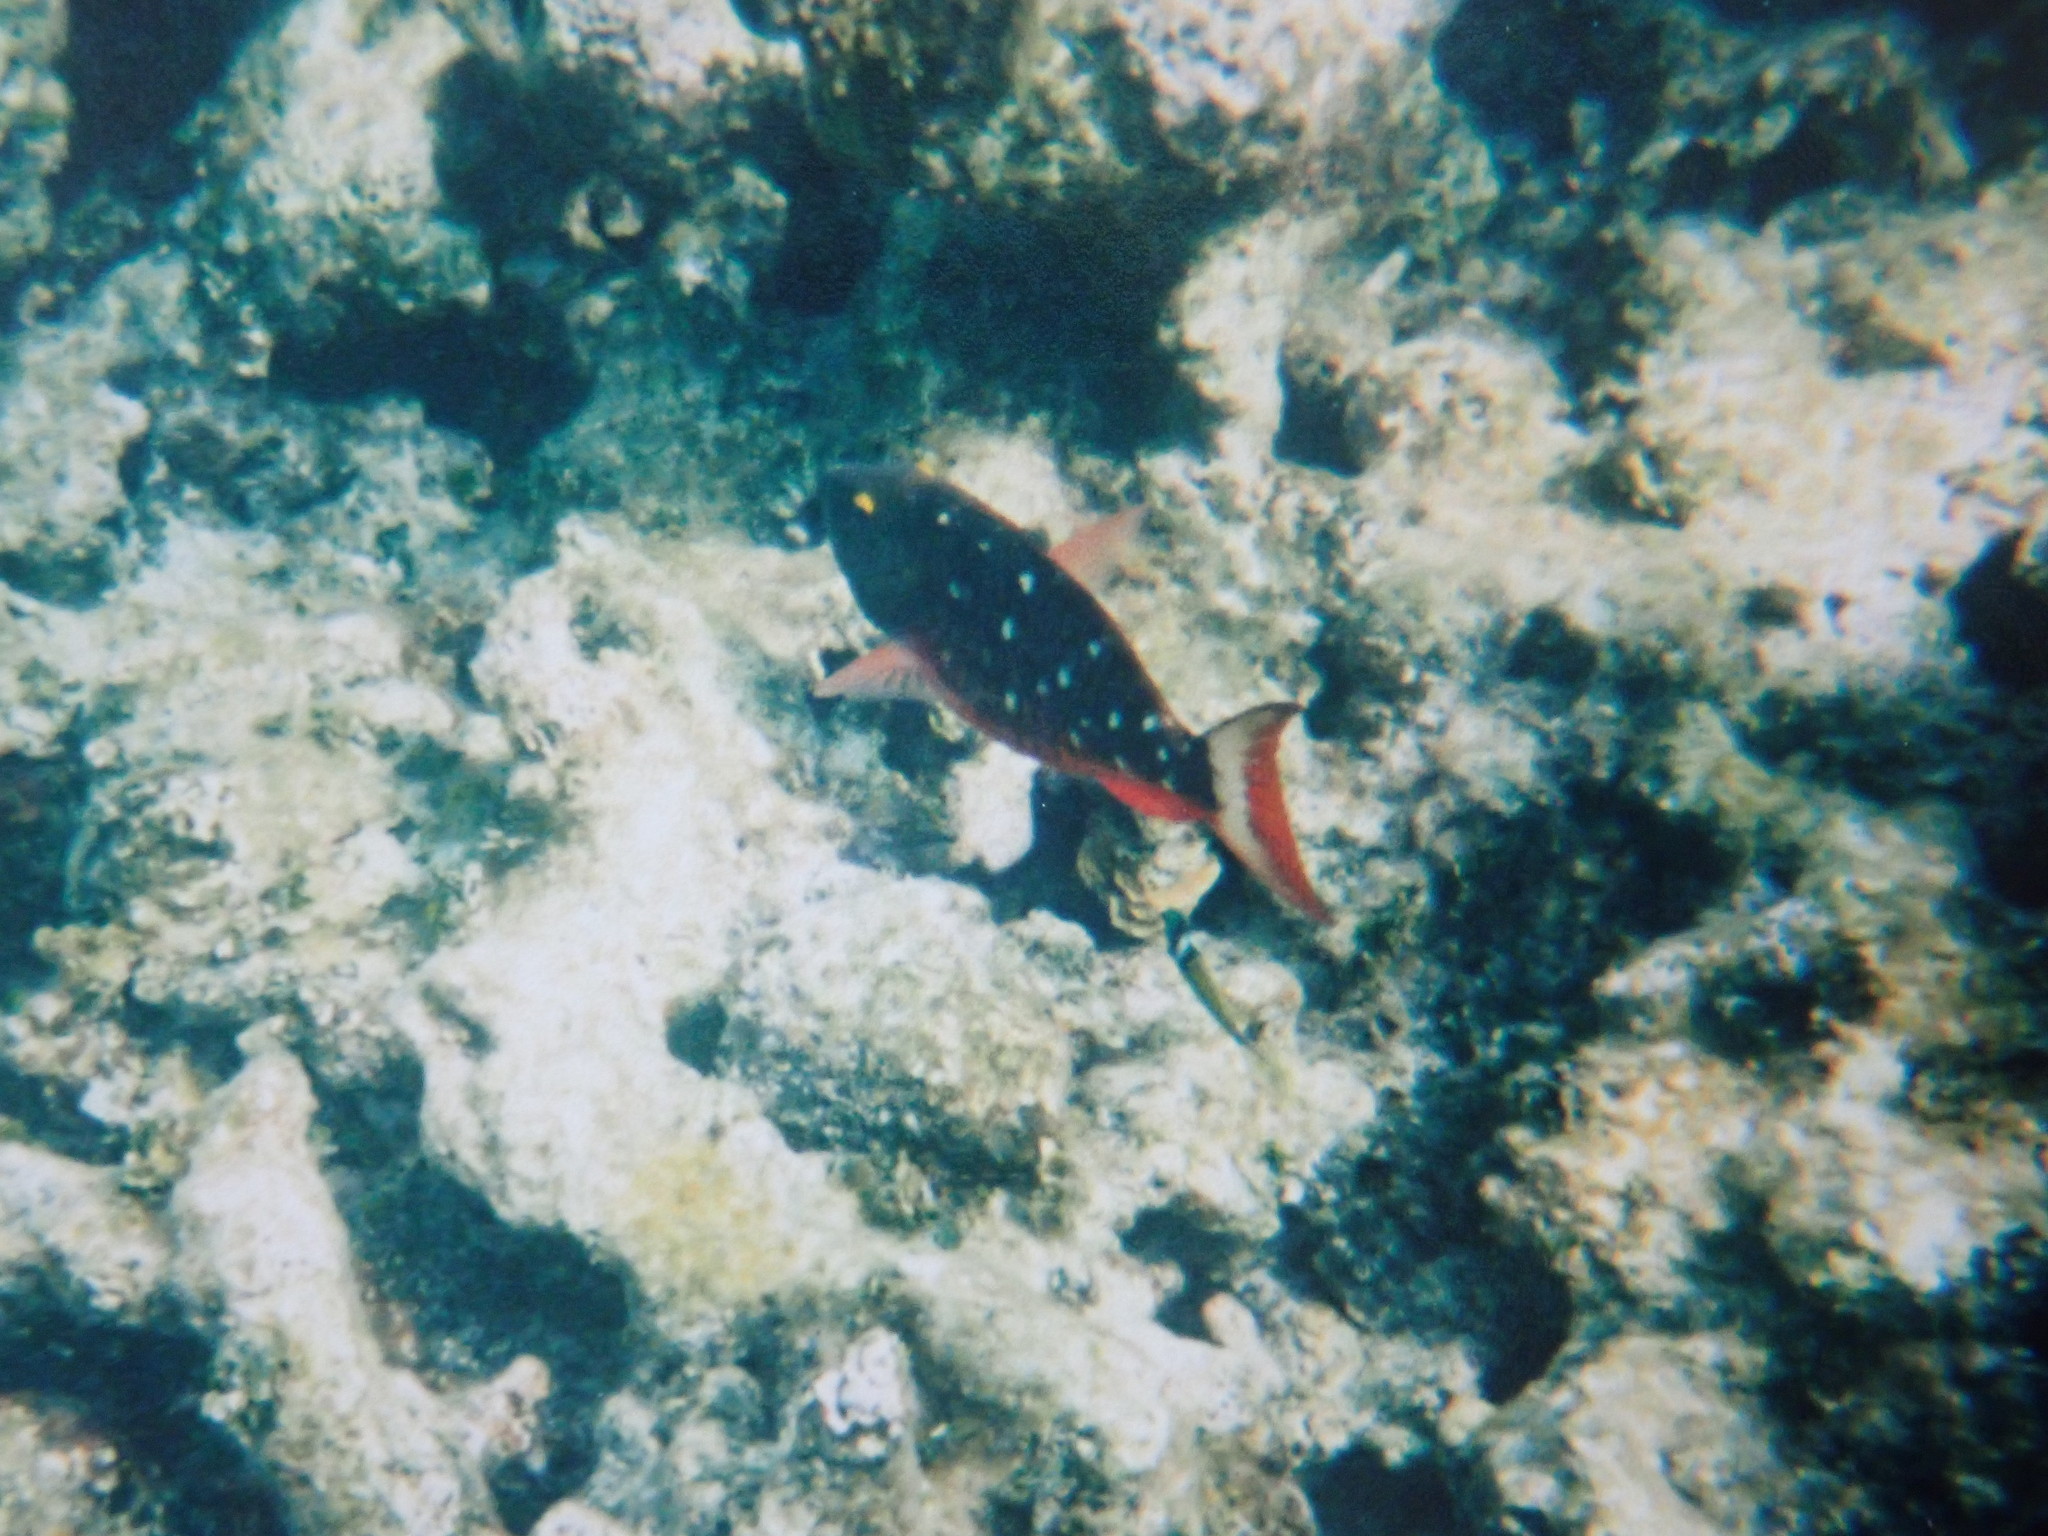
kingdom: Animalia
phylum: Chordata
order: Perciformes
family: Scaridae
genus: Sparisoma
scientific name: Sparisoma viride
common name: Stoplight parrotfish
